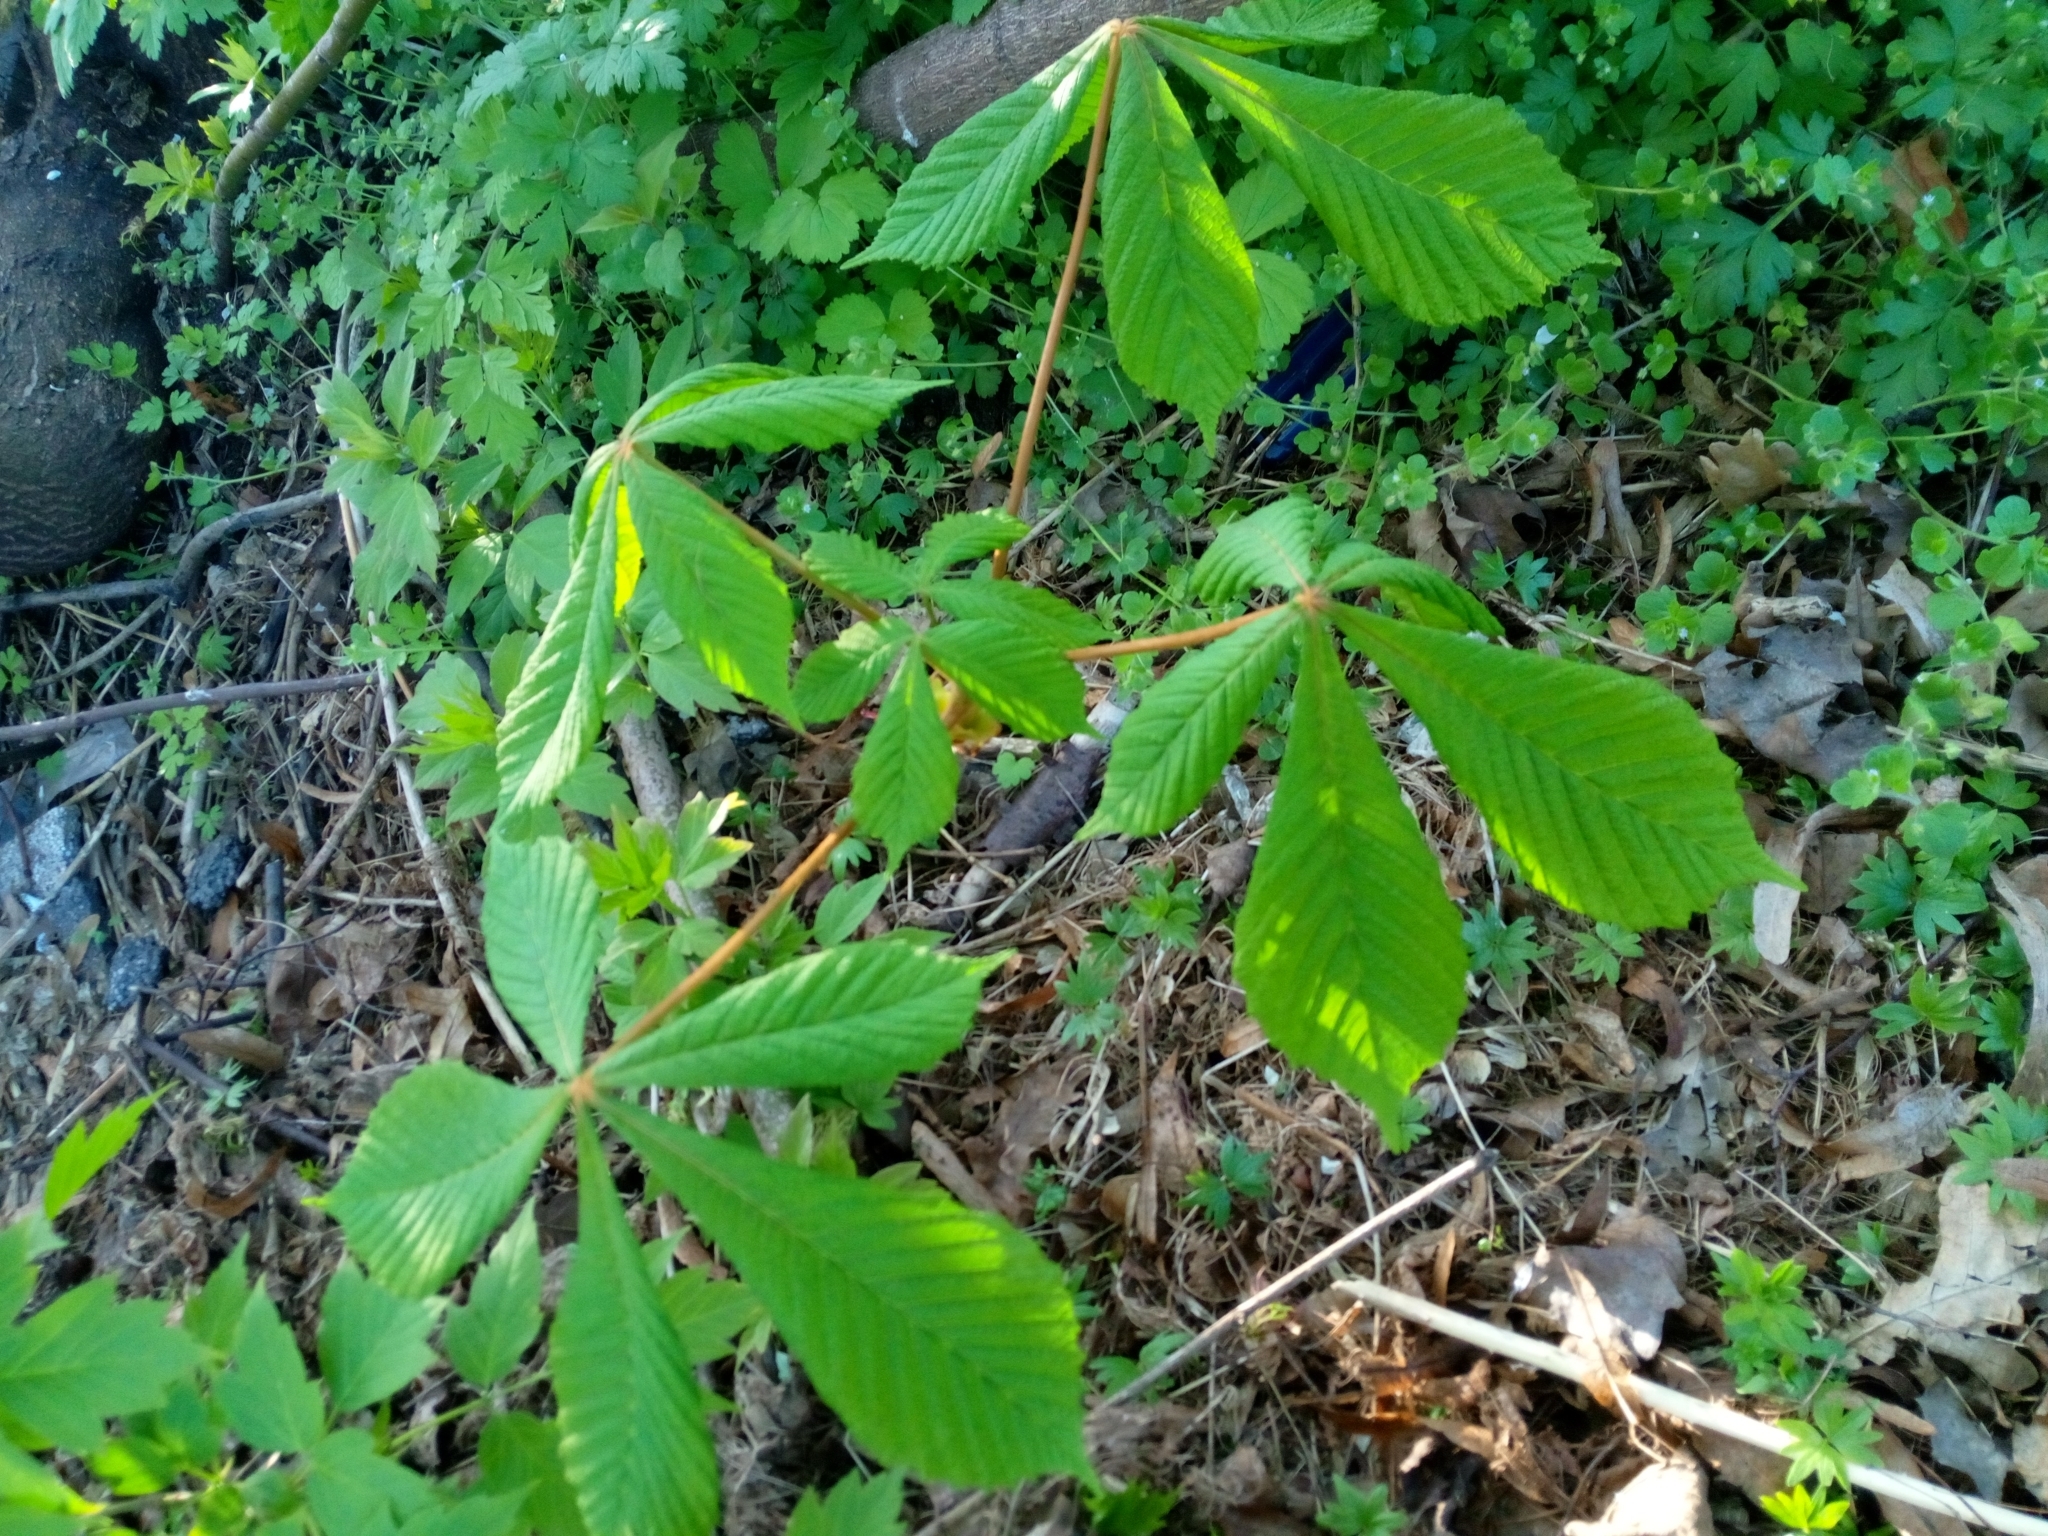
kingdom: Plantae
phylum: Tracheophyta
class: Magnoliopsida
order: Sapindales
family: Sapindaceae
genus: Aesculus
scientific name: Aesculus hippocastanum
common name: Horse-chestnut
